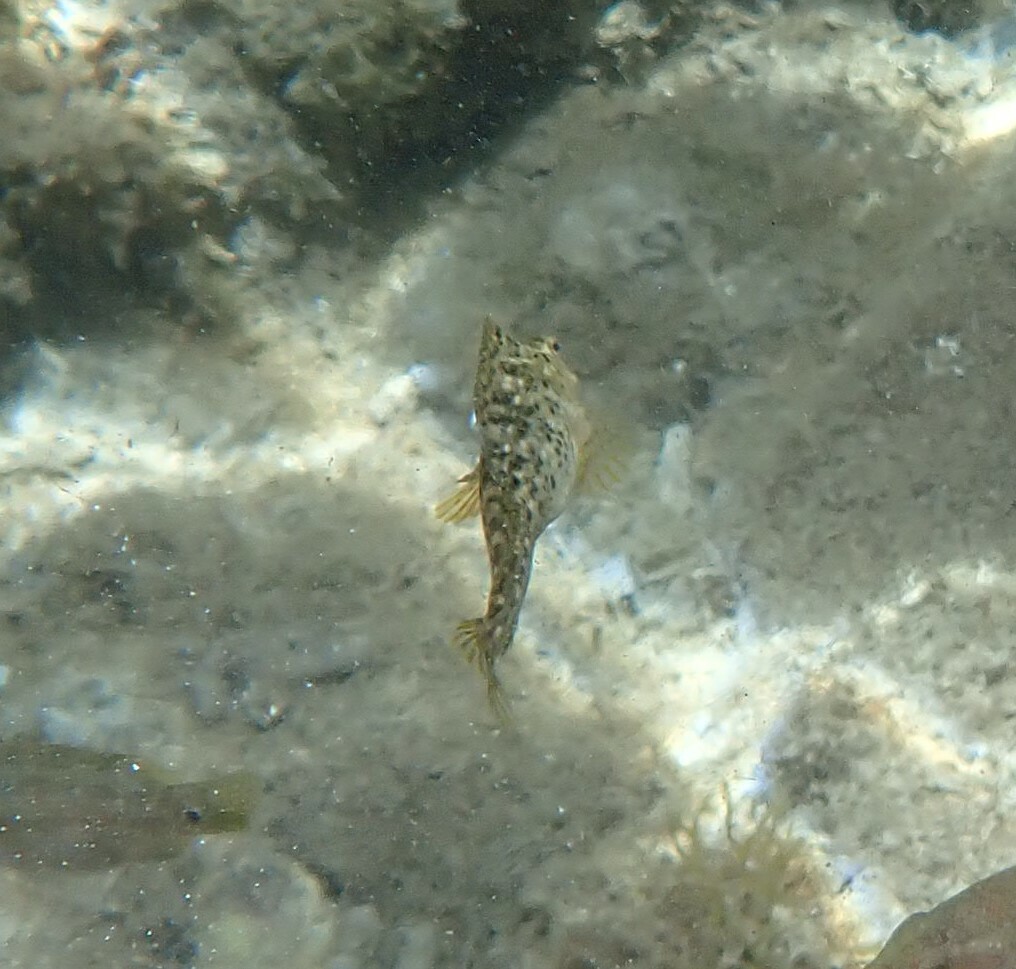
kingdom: Animalia
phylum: Chordata
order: Perciformes
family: Blenniidae
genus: Parablennius
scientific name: Parablennius sanguinolentus
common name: Black sea blenny
